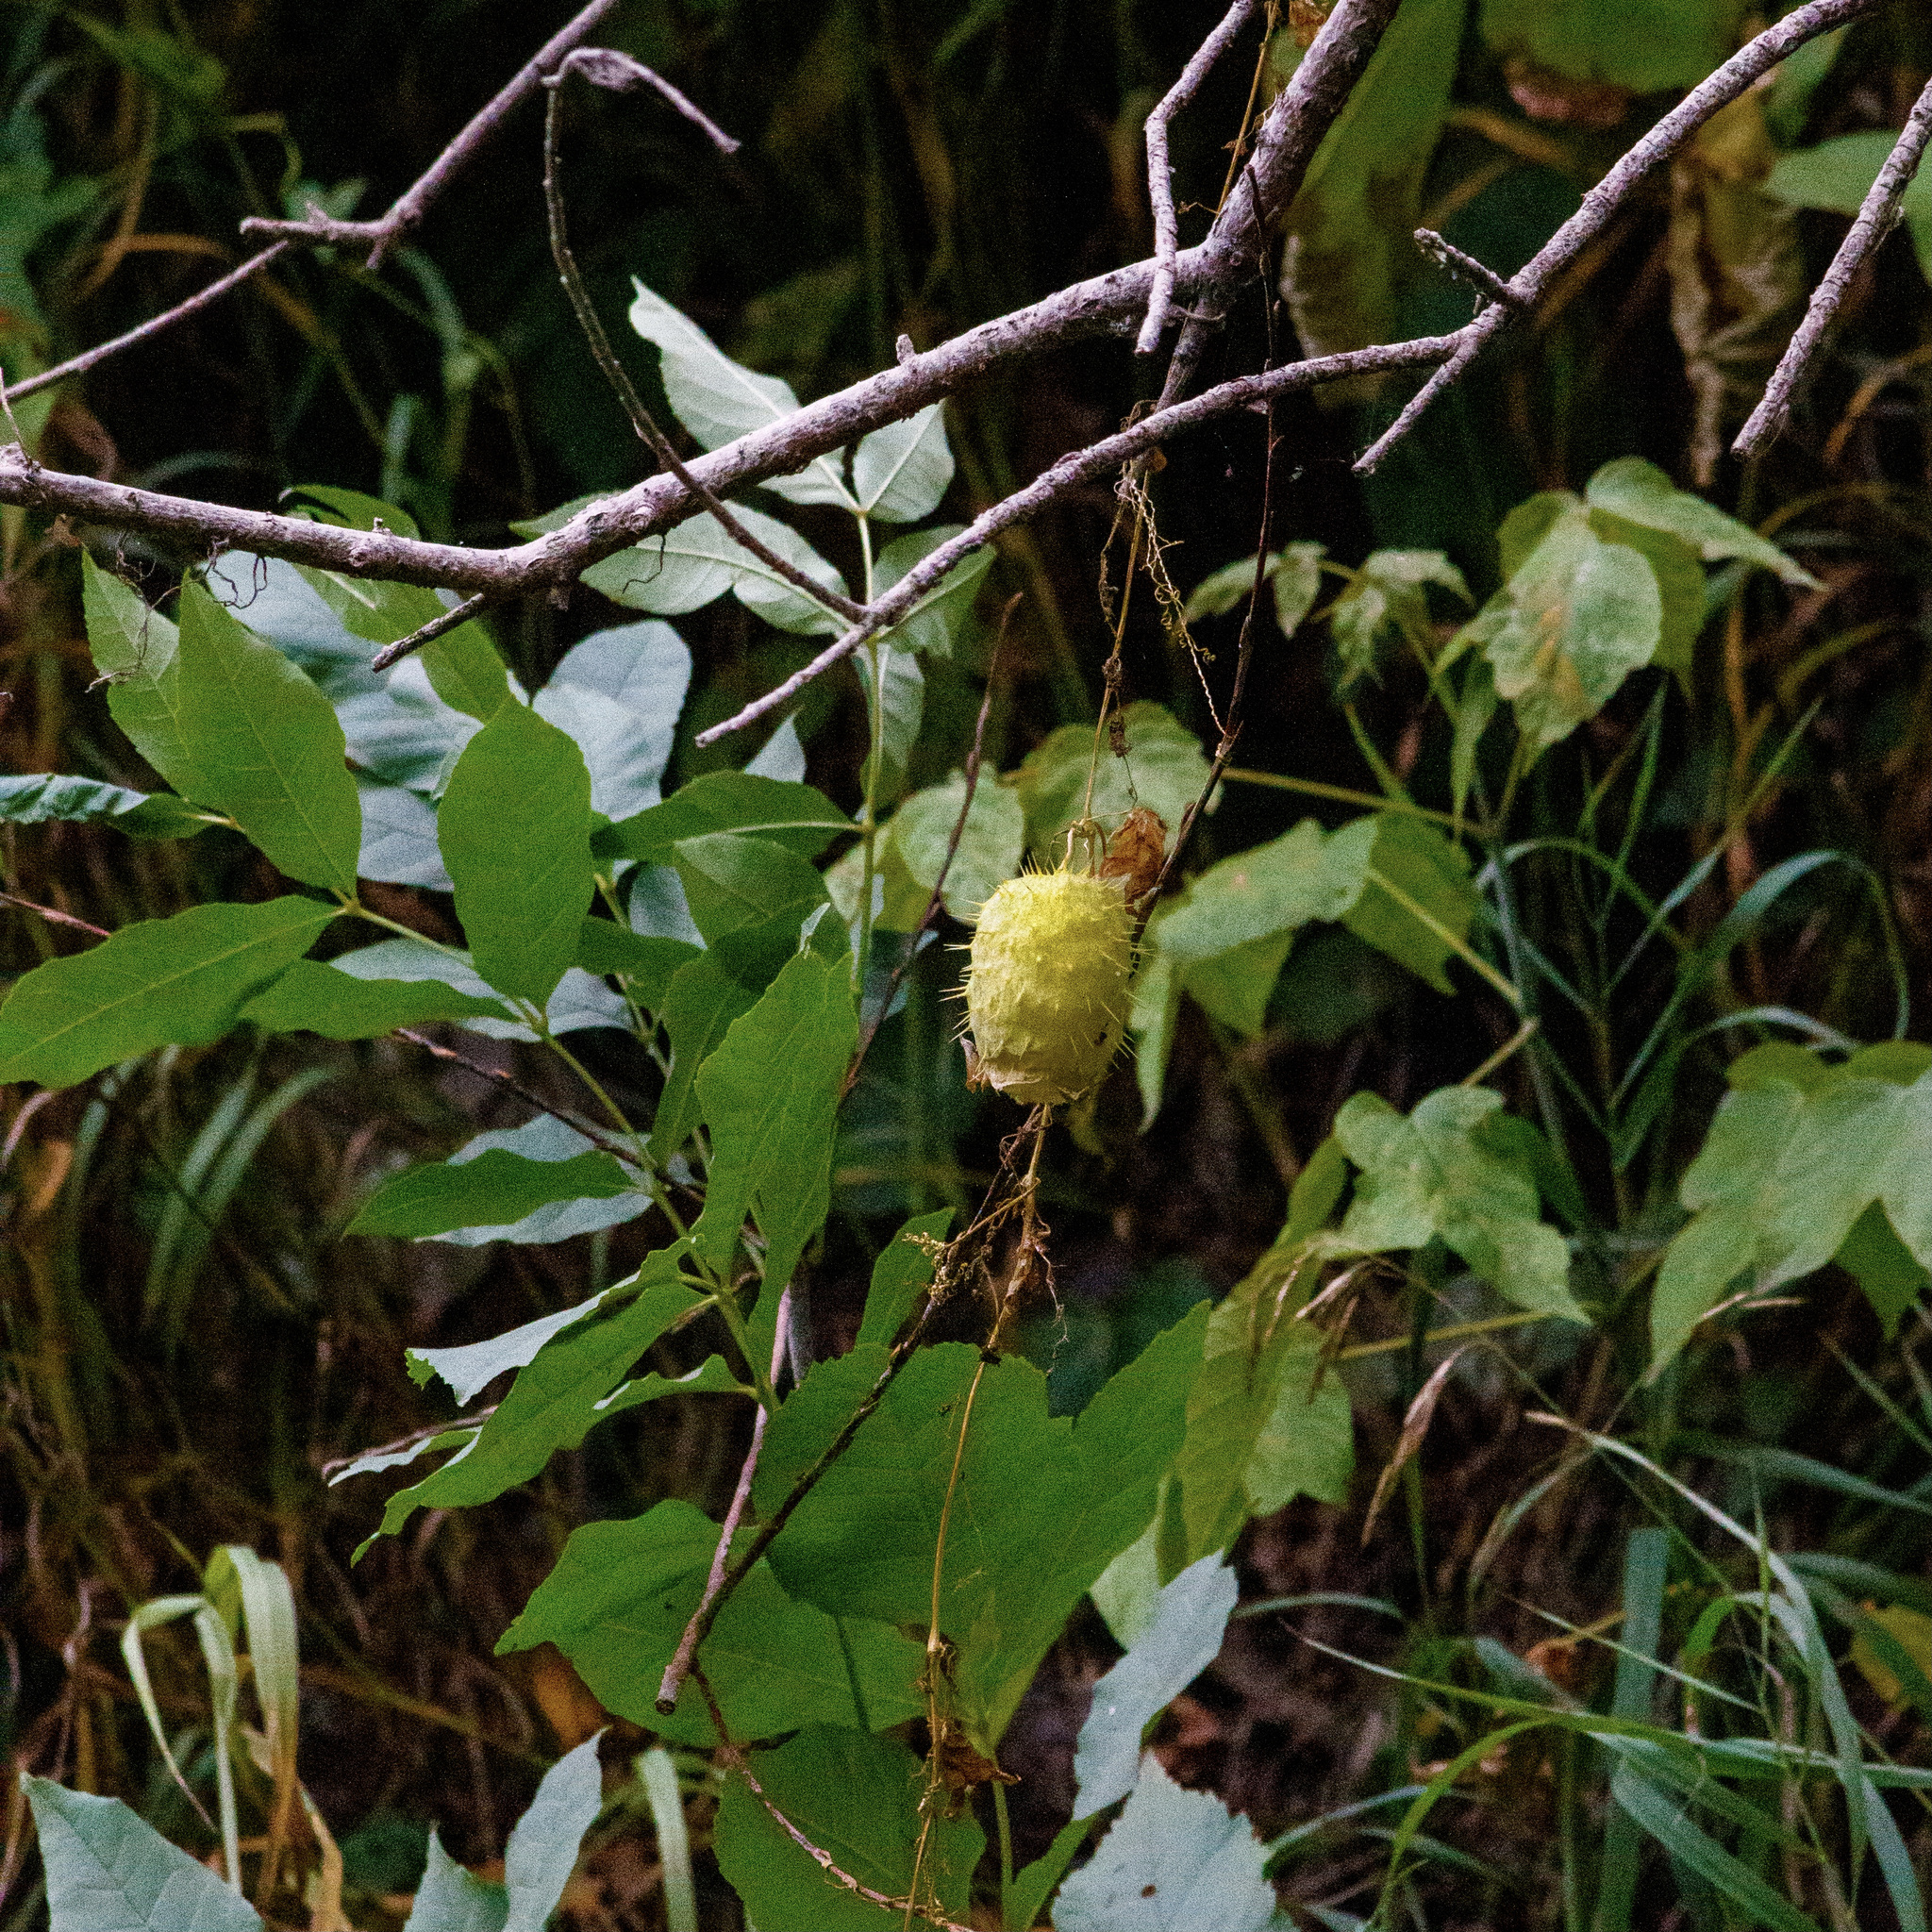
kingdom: Plantae
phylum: Tracheophyta
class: Magnoliopsida
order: Cucurbitales
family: Cucurbitaceae
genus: Echinocystis
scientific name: Echinocystis lobata
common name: Wild cucumber
